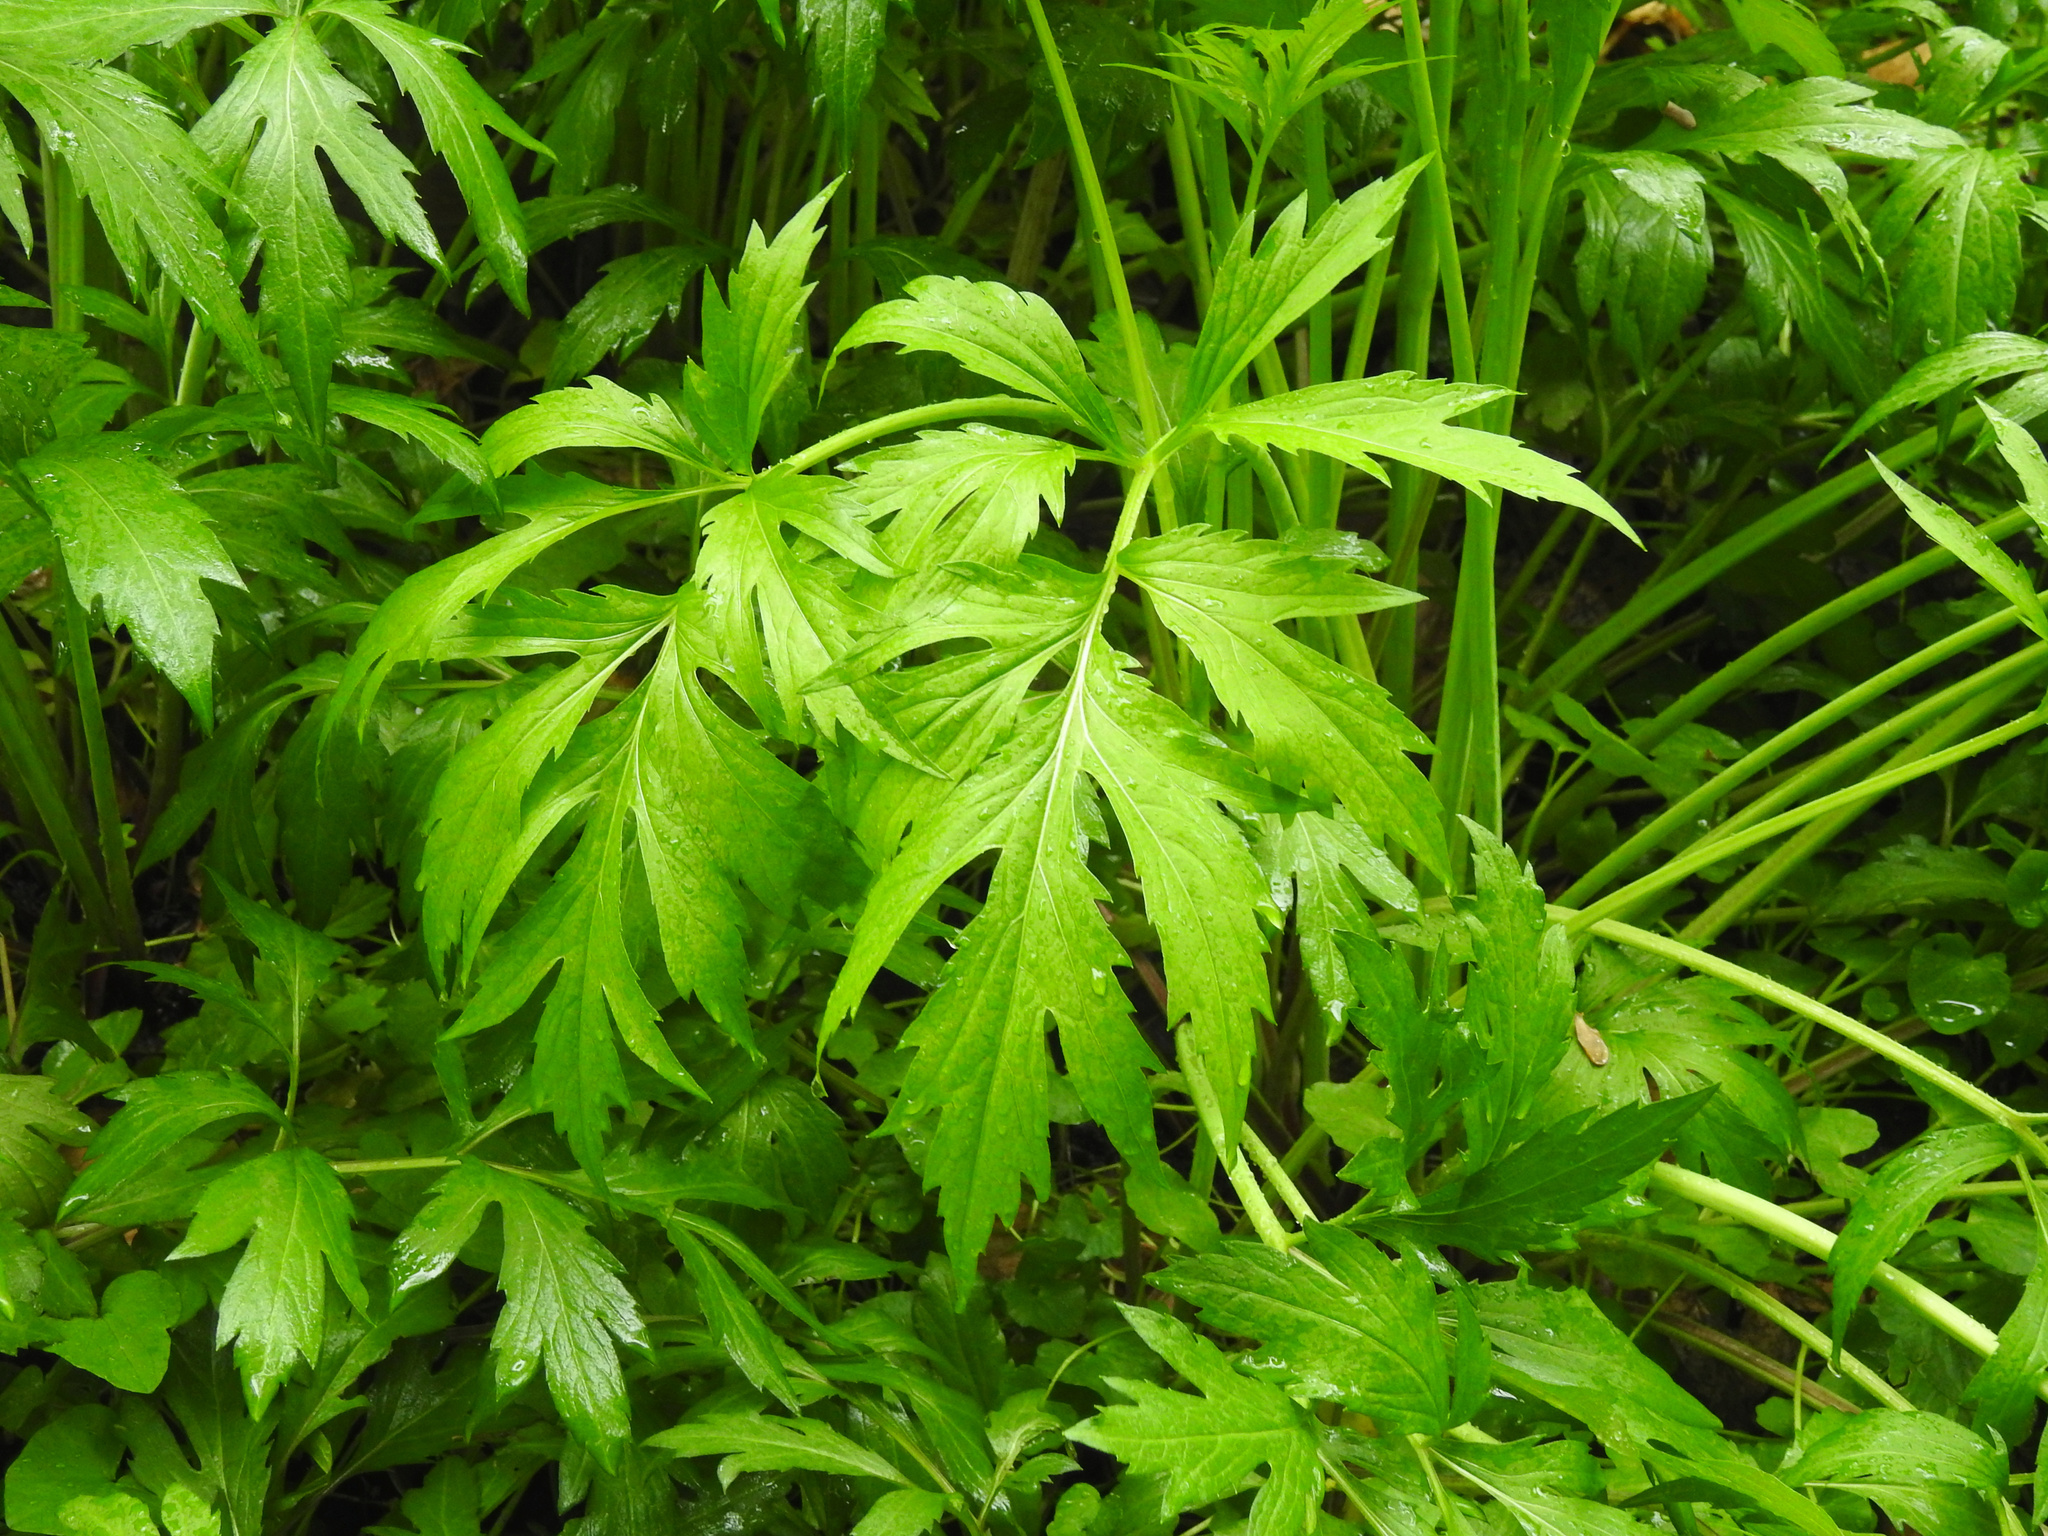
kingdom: Plantae
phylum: Tracheophyta
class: Magnoliopsida
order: Asterales
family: Asteraceae
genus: Rudbeckia
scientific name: Rudbeckia laciniata
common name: Coneflower
